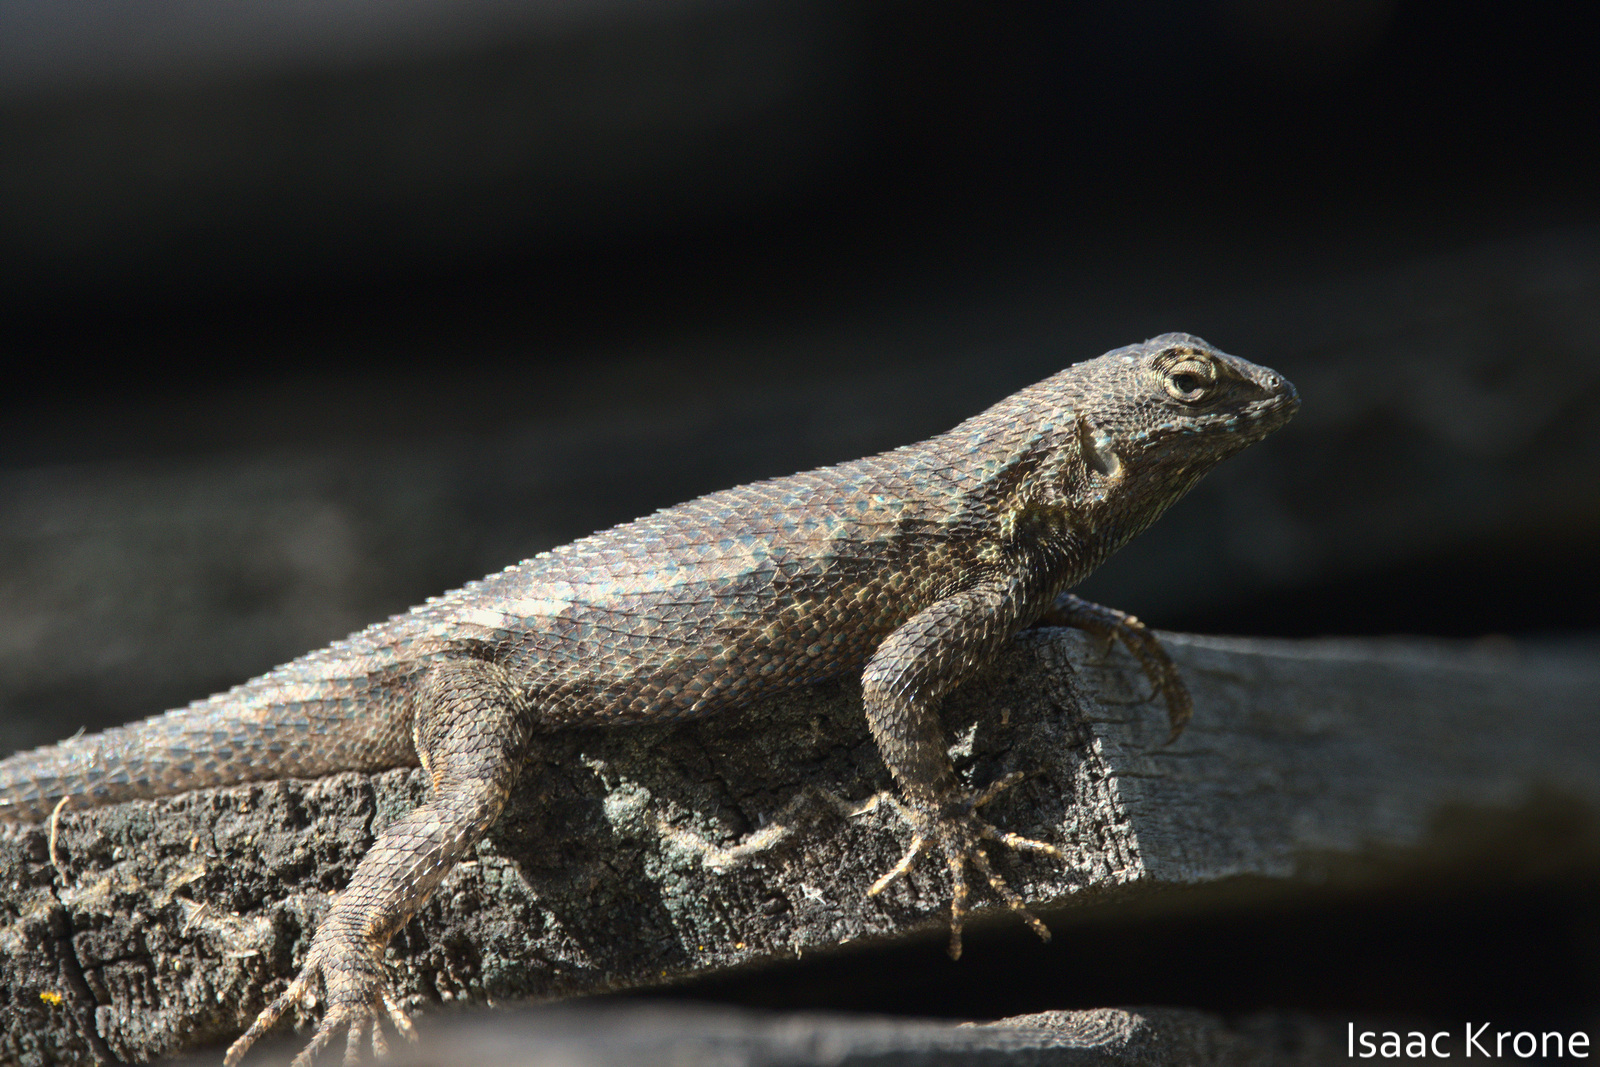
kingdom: Animalia
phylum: Chordata
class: Squamata
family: Phrynosomatidae
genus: Sceloporus
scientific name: Sceloporus occidentalis
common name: Western fence lizard
